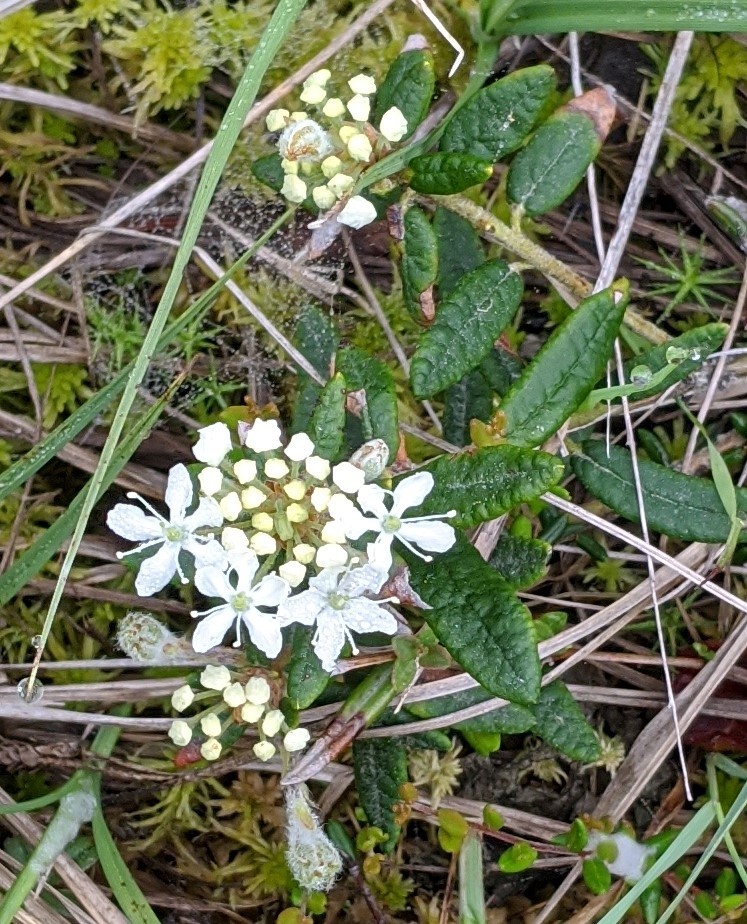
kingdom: Plantae
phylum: Tracheophyta
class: Magnoliopsida
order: Ericales
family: Ericaceae
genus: Rhododendron
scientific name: Rhododendron groenlandicum
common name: Bog labrador tea
